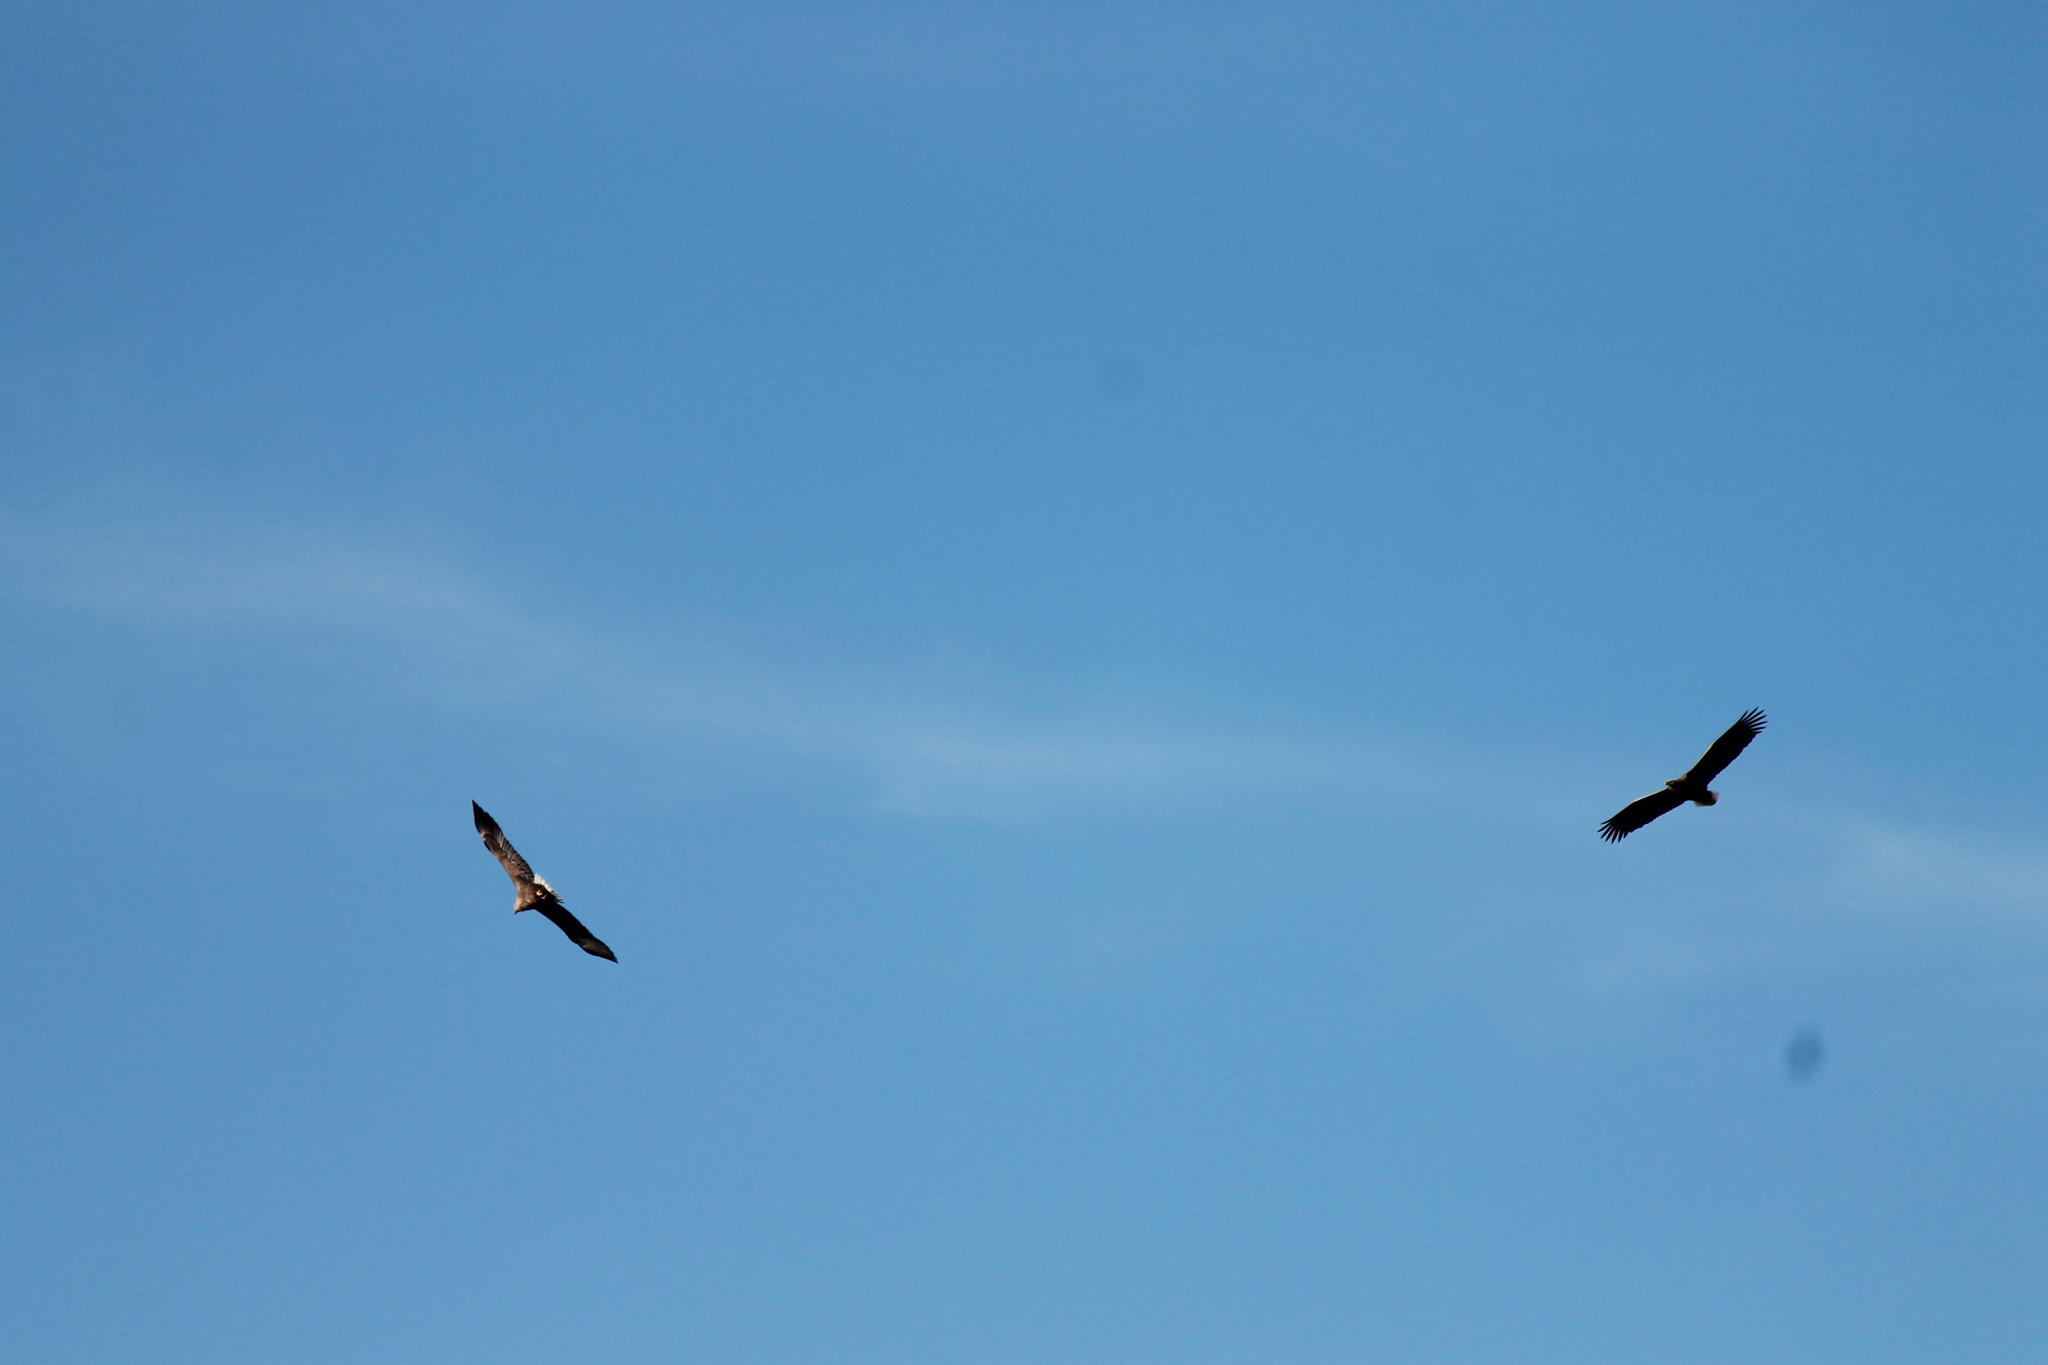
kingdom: Animalia
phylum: Chordata
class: Aves
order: Accipitriformes
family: Accipitridae
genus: Haliaeetus
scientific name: Haliaeetus albicilla
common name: White-tailed eagle
